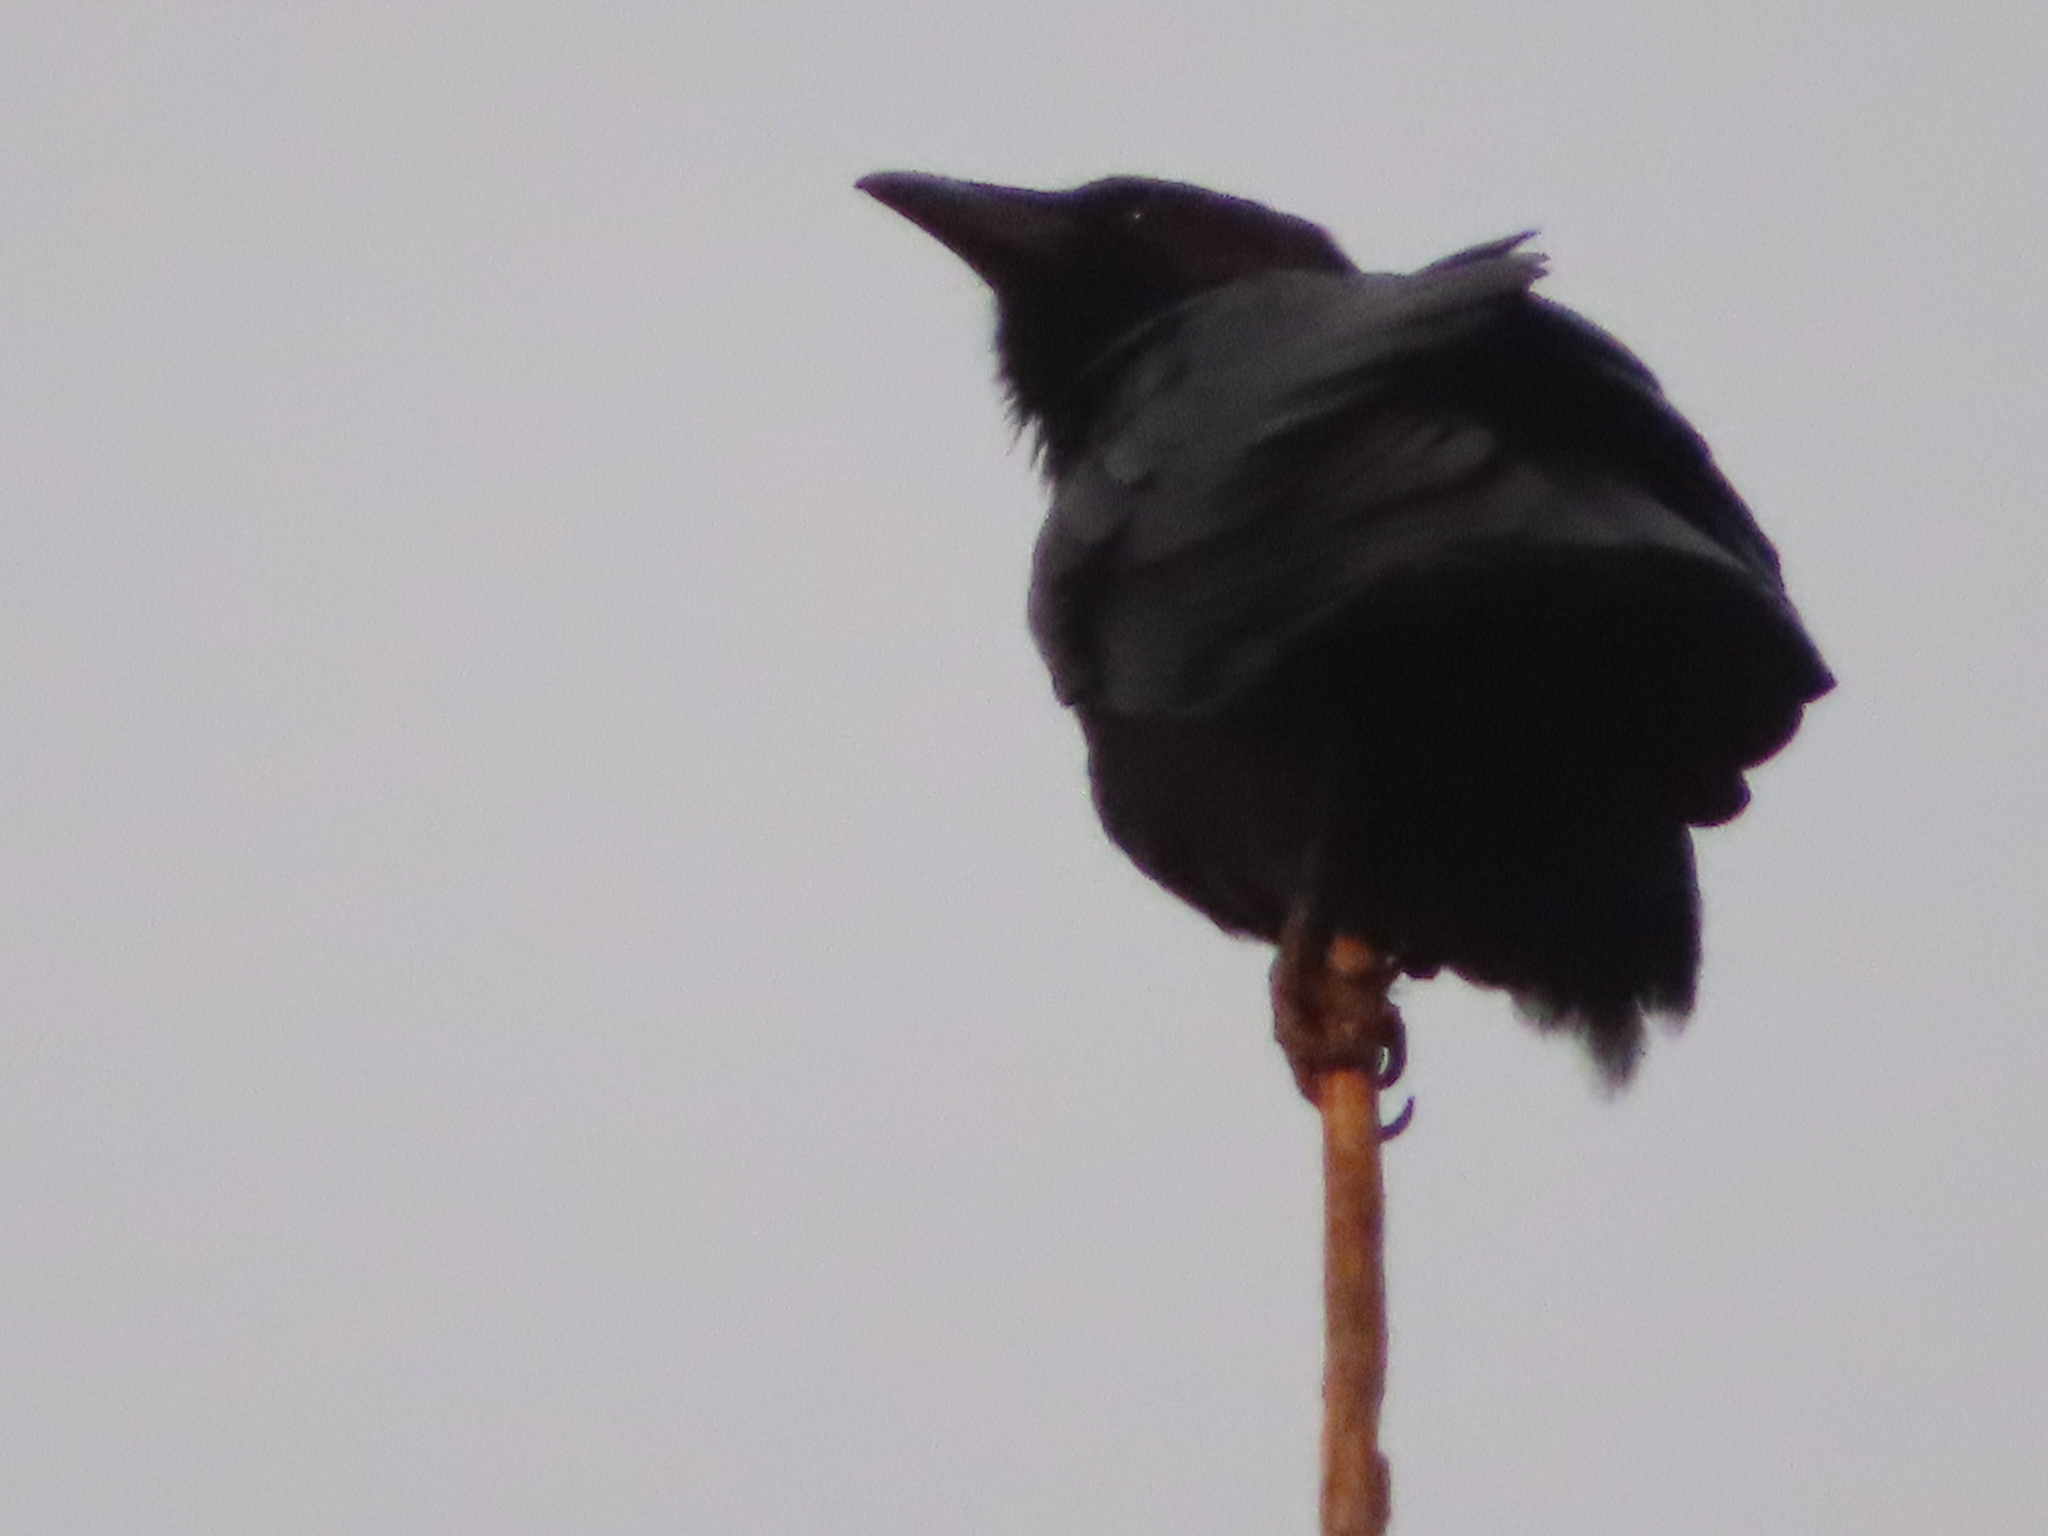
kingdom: Animalia
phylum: Chordata
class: Aves
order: Passeriformes
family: Corvidae
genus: Corvus
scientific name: Corvus ossifragus
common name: Fish crow
